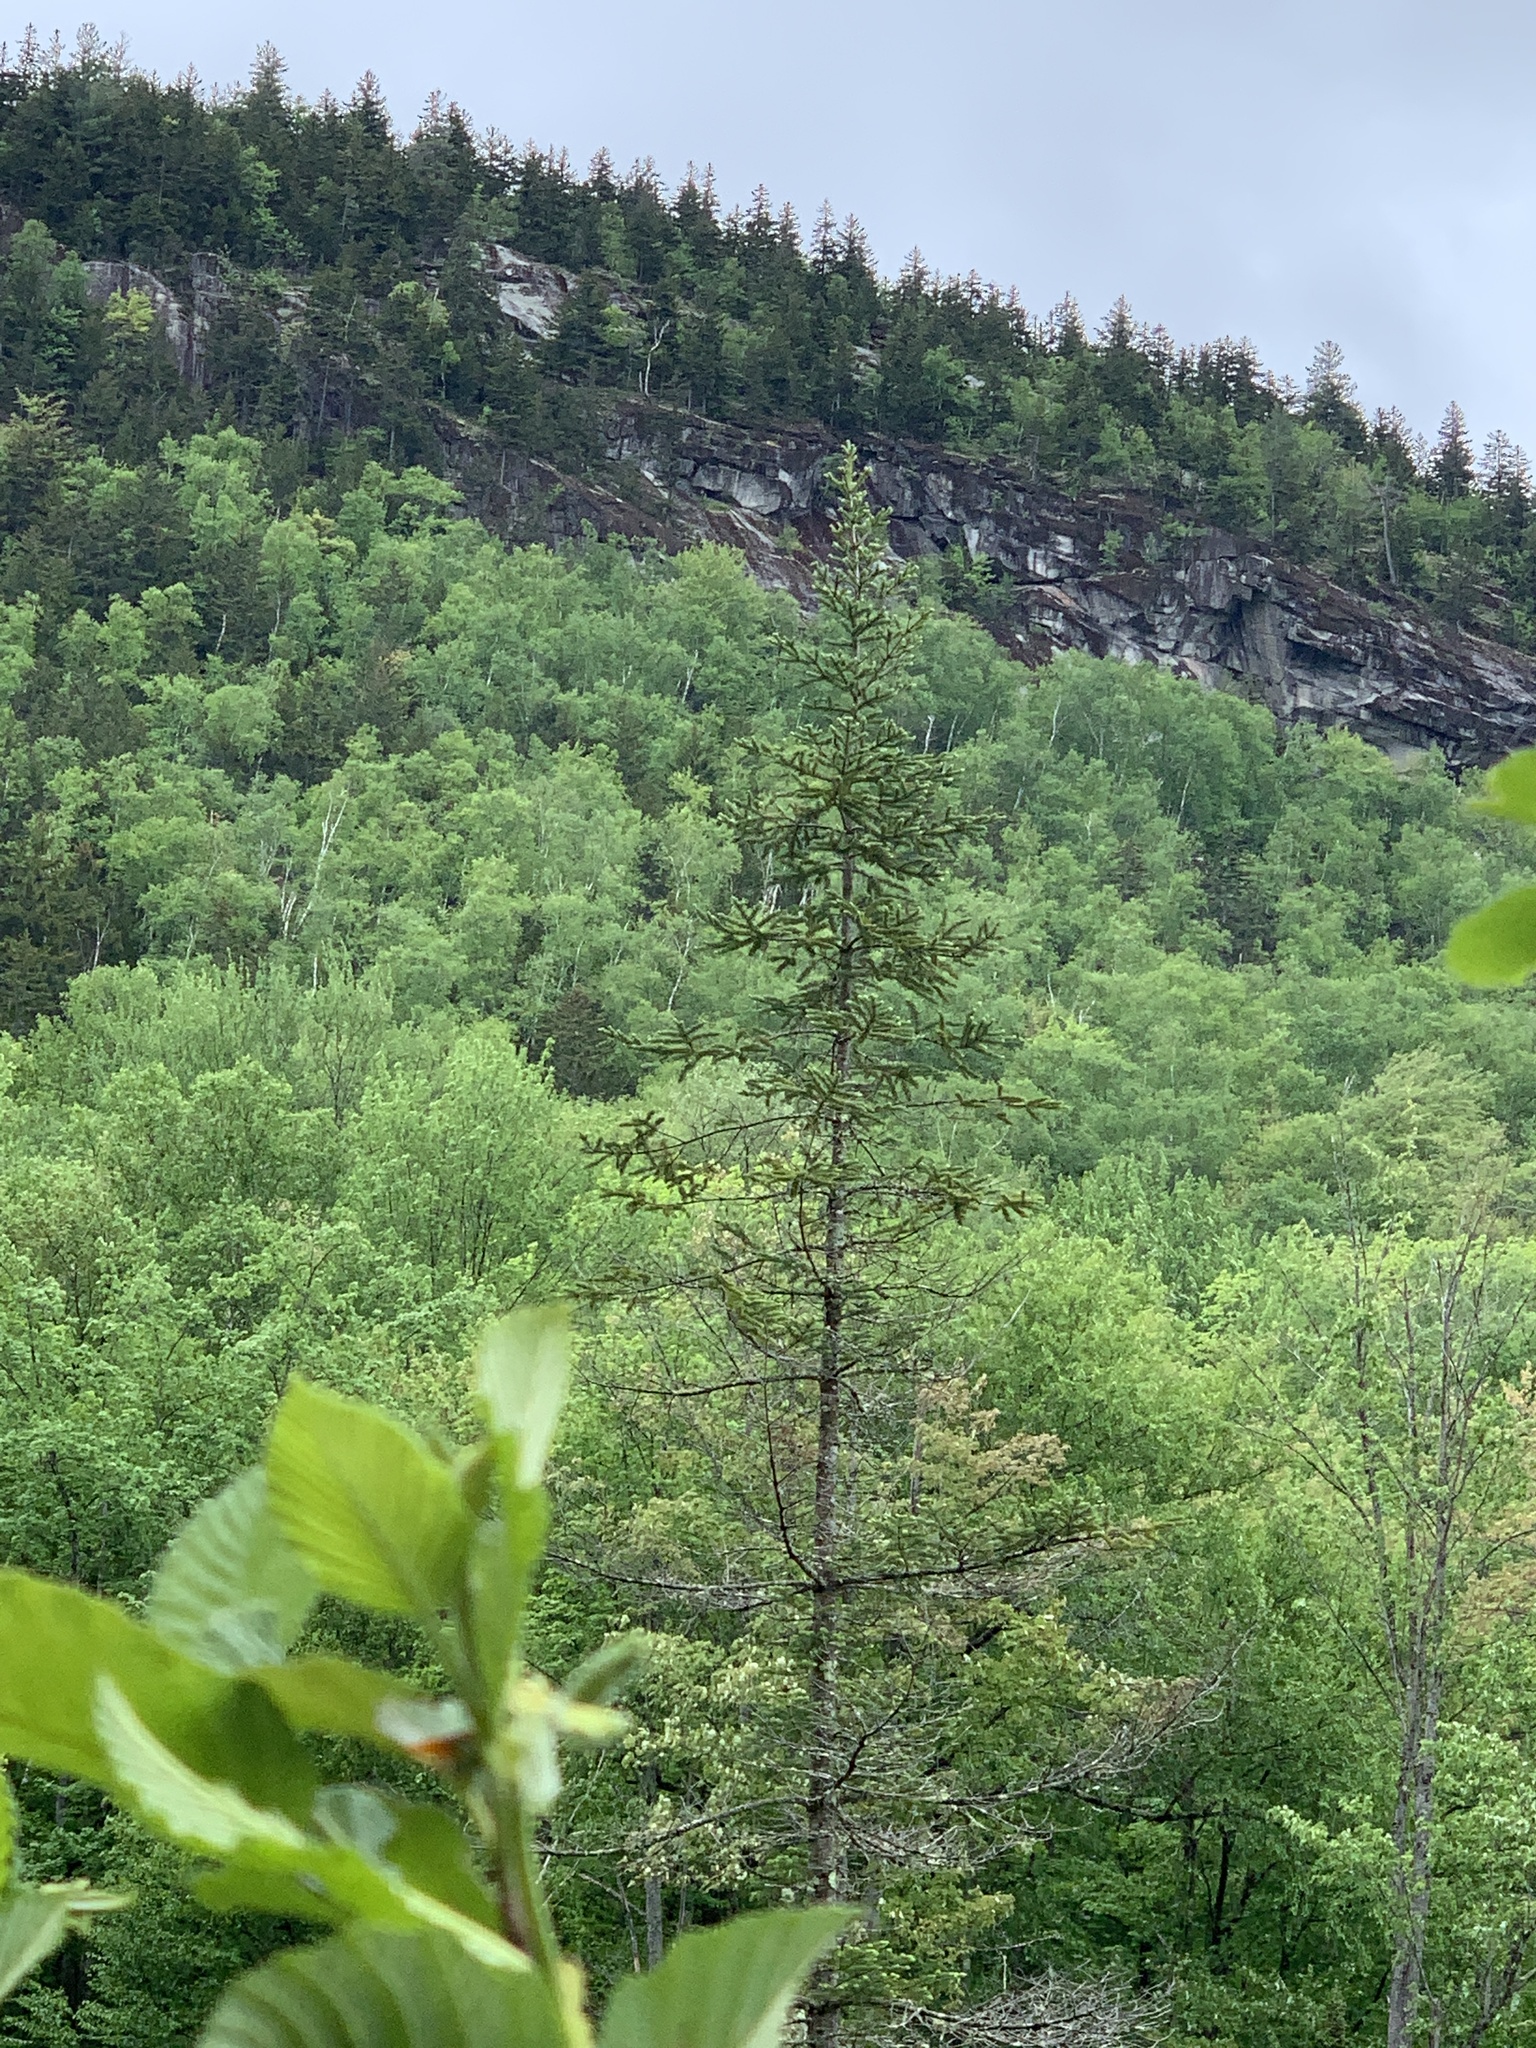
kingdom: Plantae
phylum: Tracheophyta
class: Pinopsida
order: Pinales
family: Pinaceae
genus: Abies
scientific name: Abies balsamea
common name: Balsam fir
